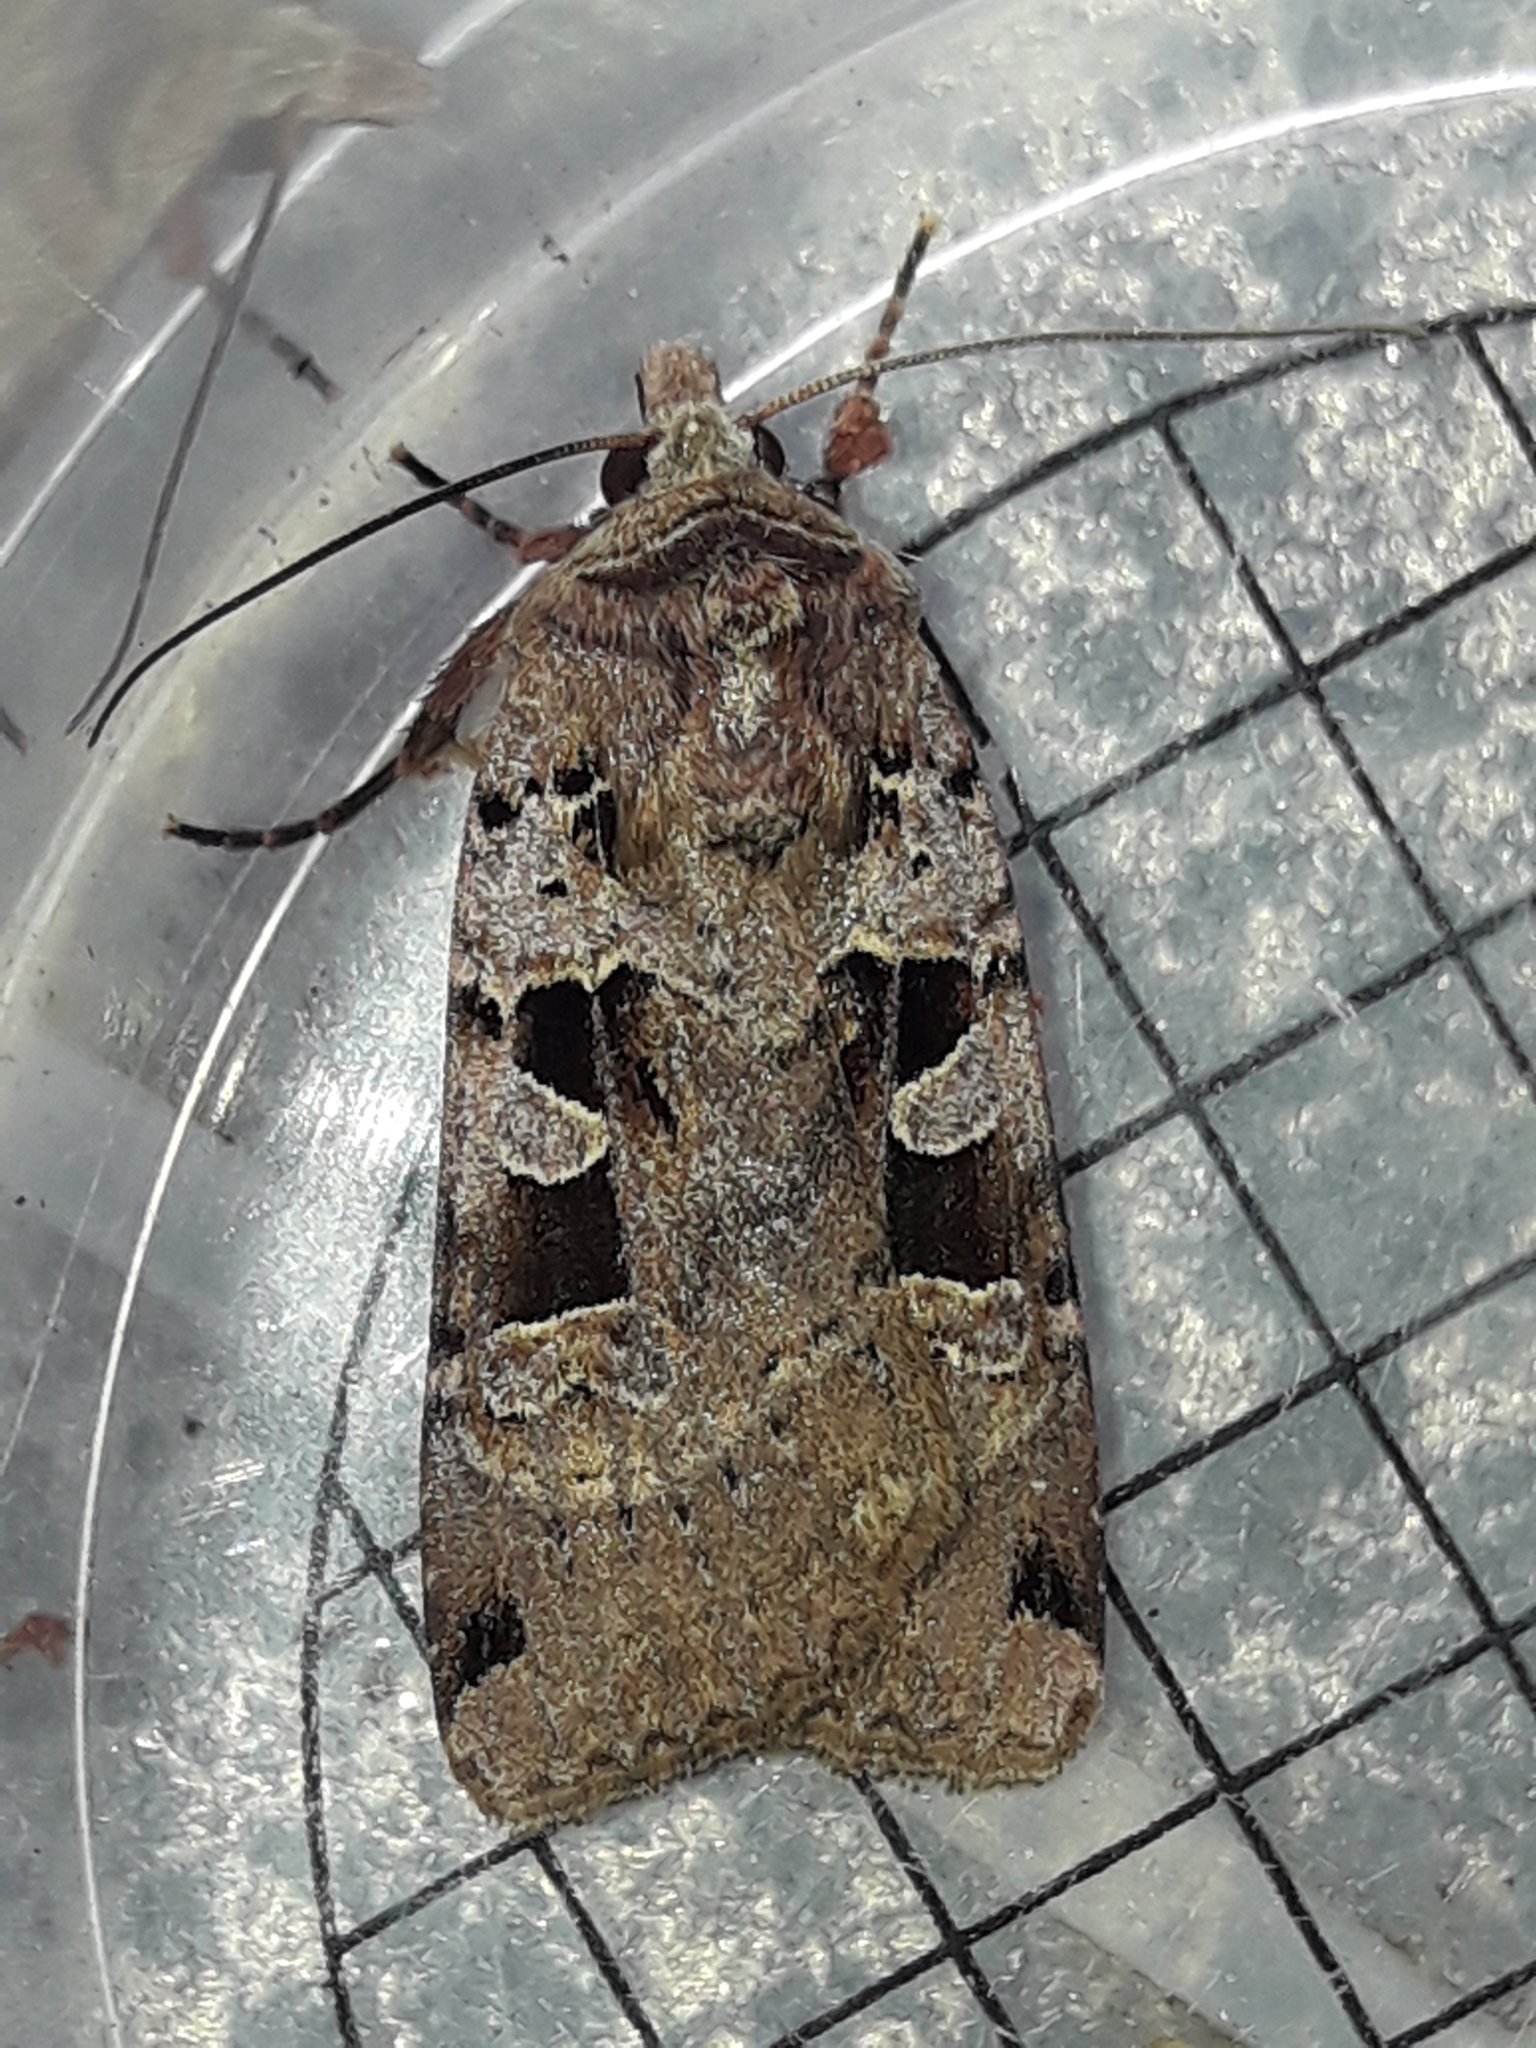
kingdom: Animalia
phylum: Arthropoda
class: Insecta
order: Lepidoptera
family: Noctuidae
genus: Xestia
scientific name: Xestia triangulum
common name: Double square-spot
